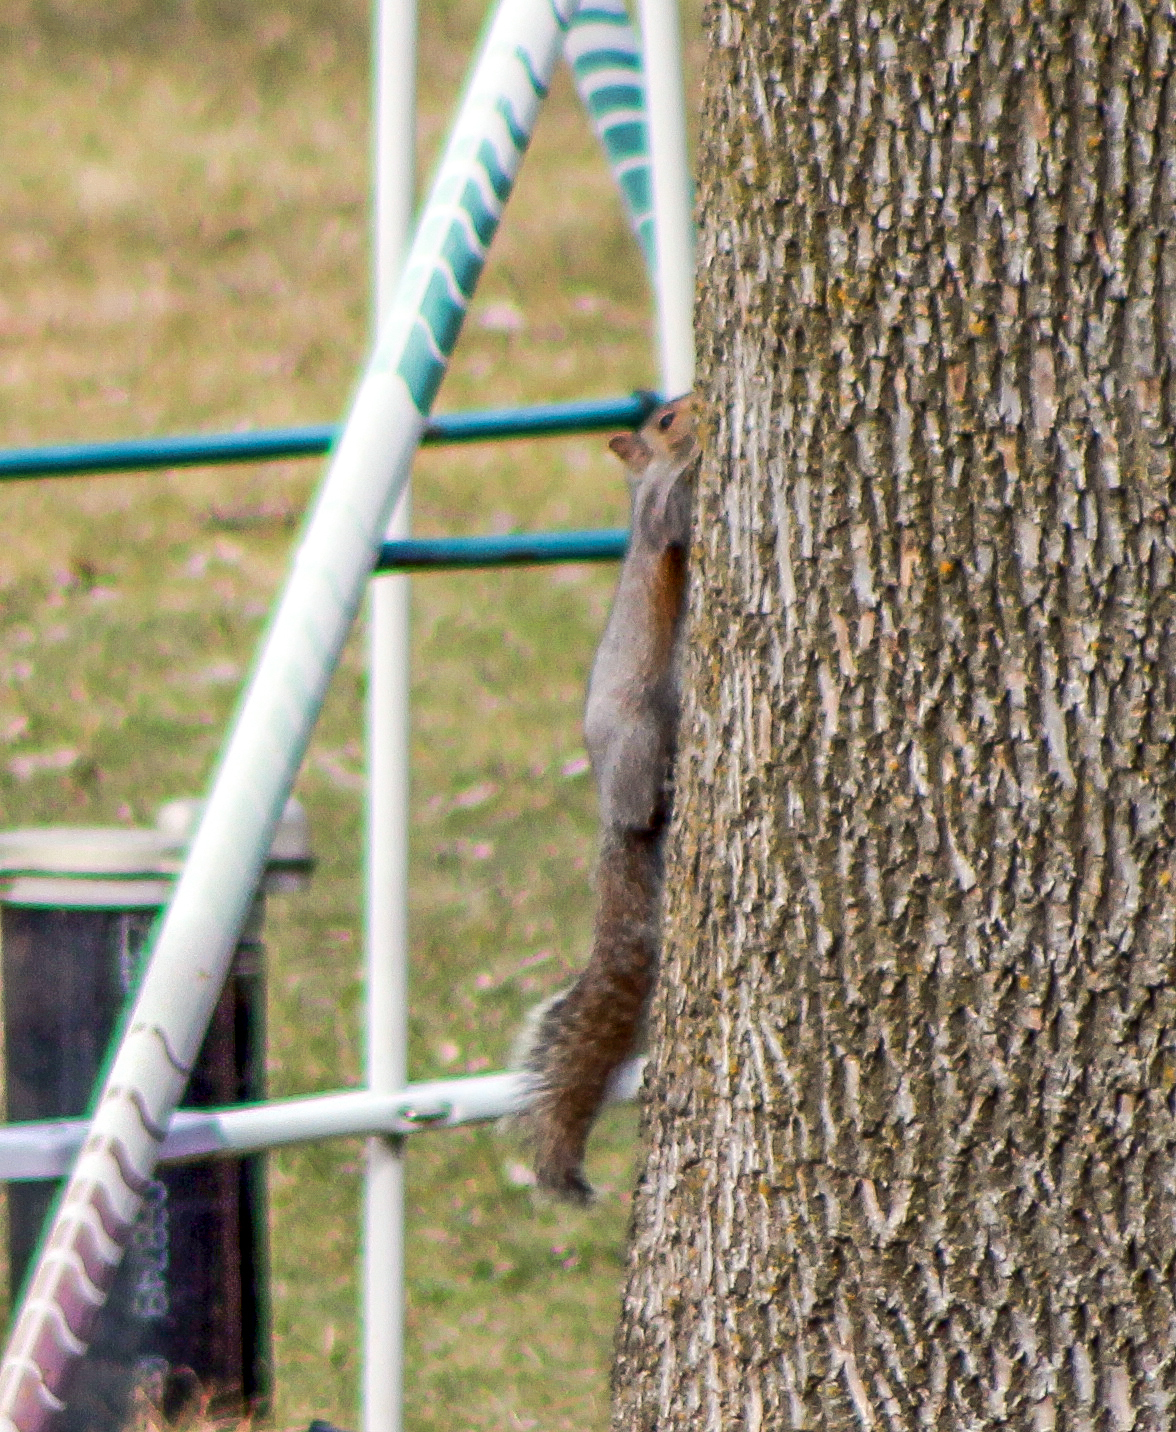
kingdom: Animalia
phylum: Chordata
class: Mammalia
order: Rodentia
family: Sciuridae
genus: Sciurus
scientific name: Sciurus carolinensis
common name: Eastern gray squirrel
